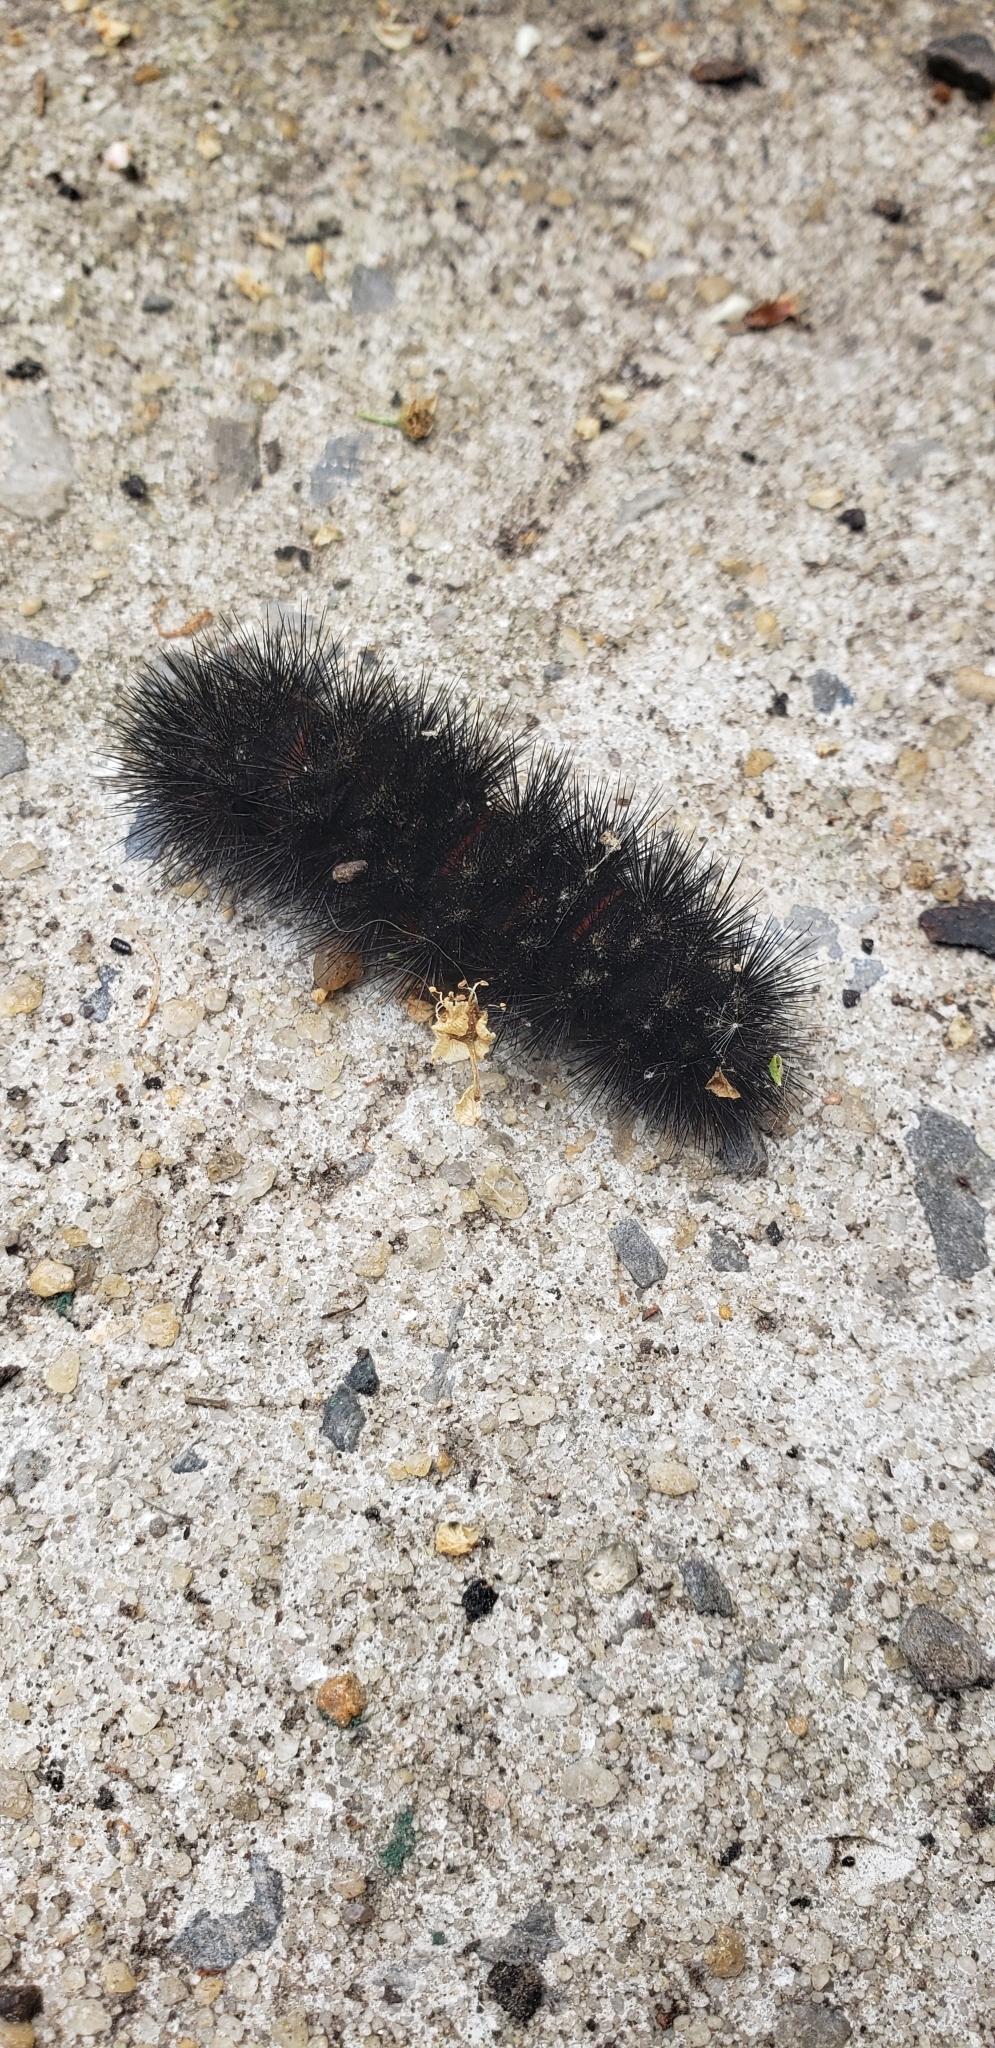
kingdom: Animalia
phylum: Arthropoda
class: Insecta
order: Lepidoptera
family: Erebidae
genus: Hypercompe
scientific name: Hypercompe scribonia
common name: Giant leopard moth
